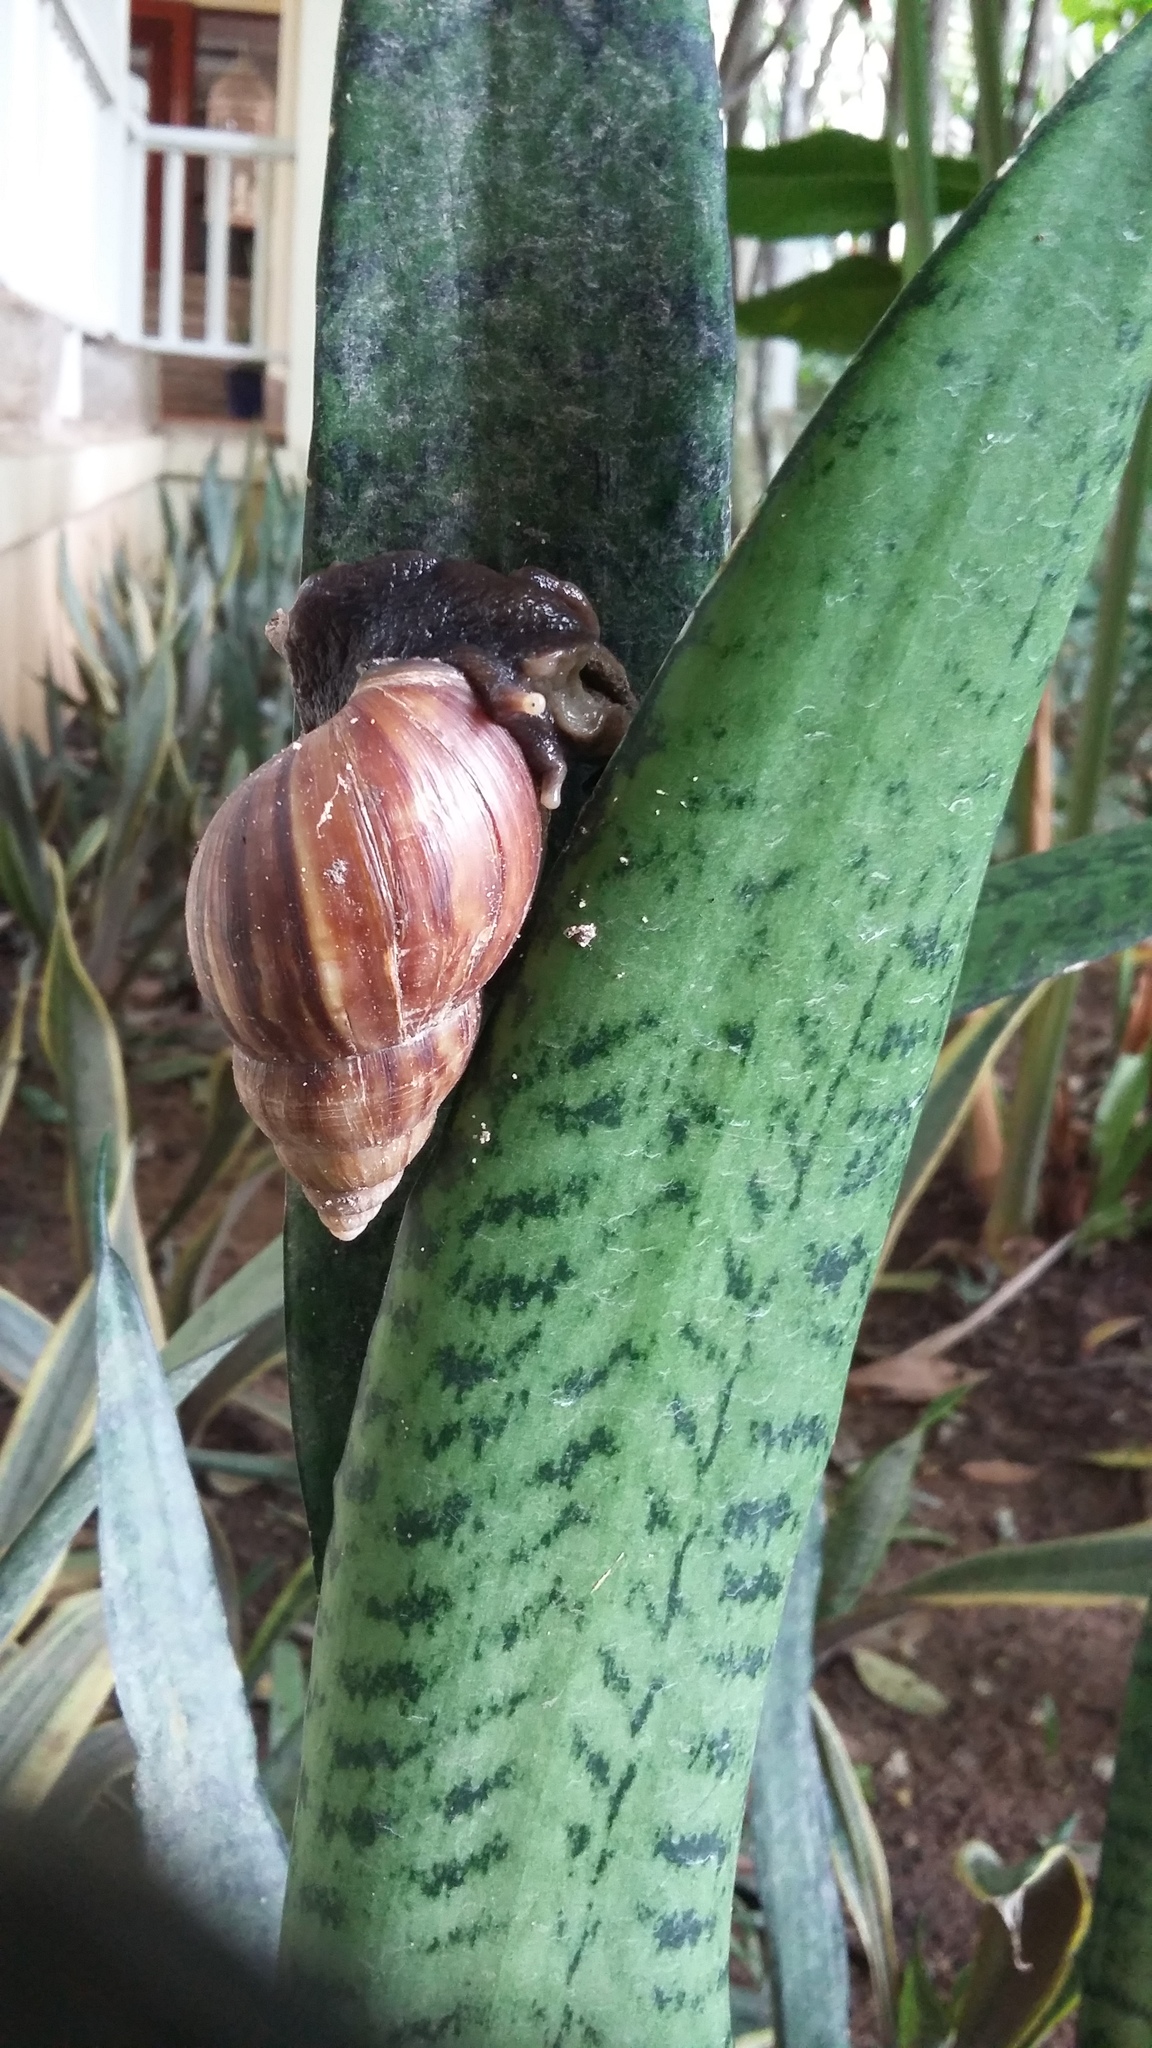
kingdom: Animalia
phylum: Mollusca
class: Gastropoda
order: Stylommatophora
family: Achatinidae
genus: Lissachatina
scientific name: Lissachatina fulica
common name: Giant african snail
